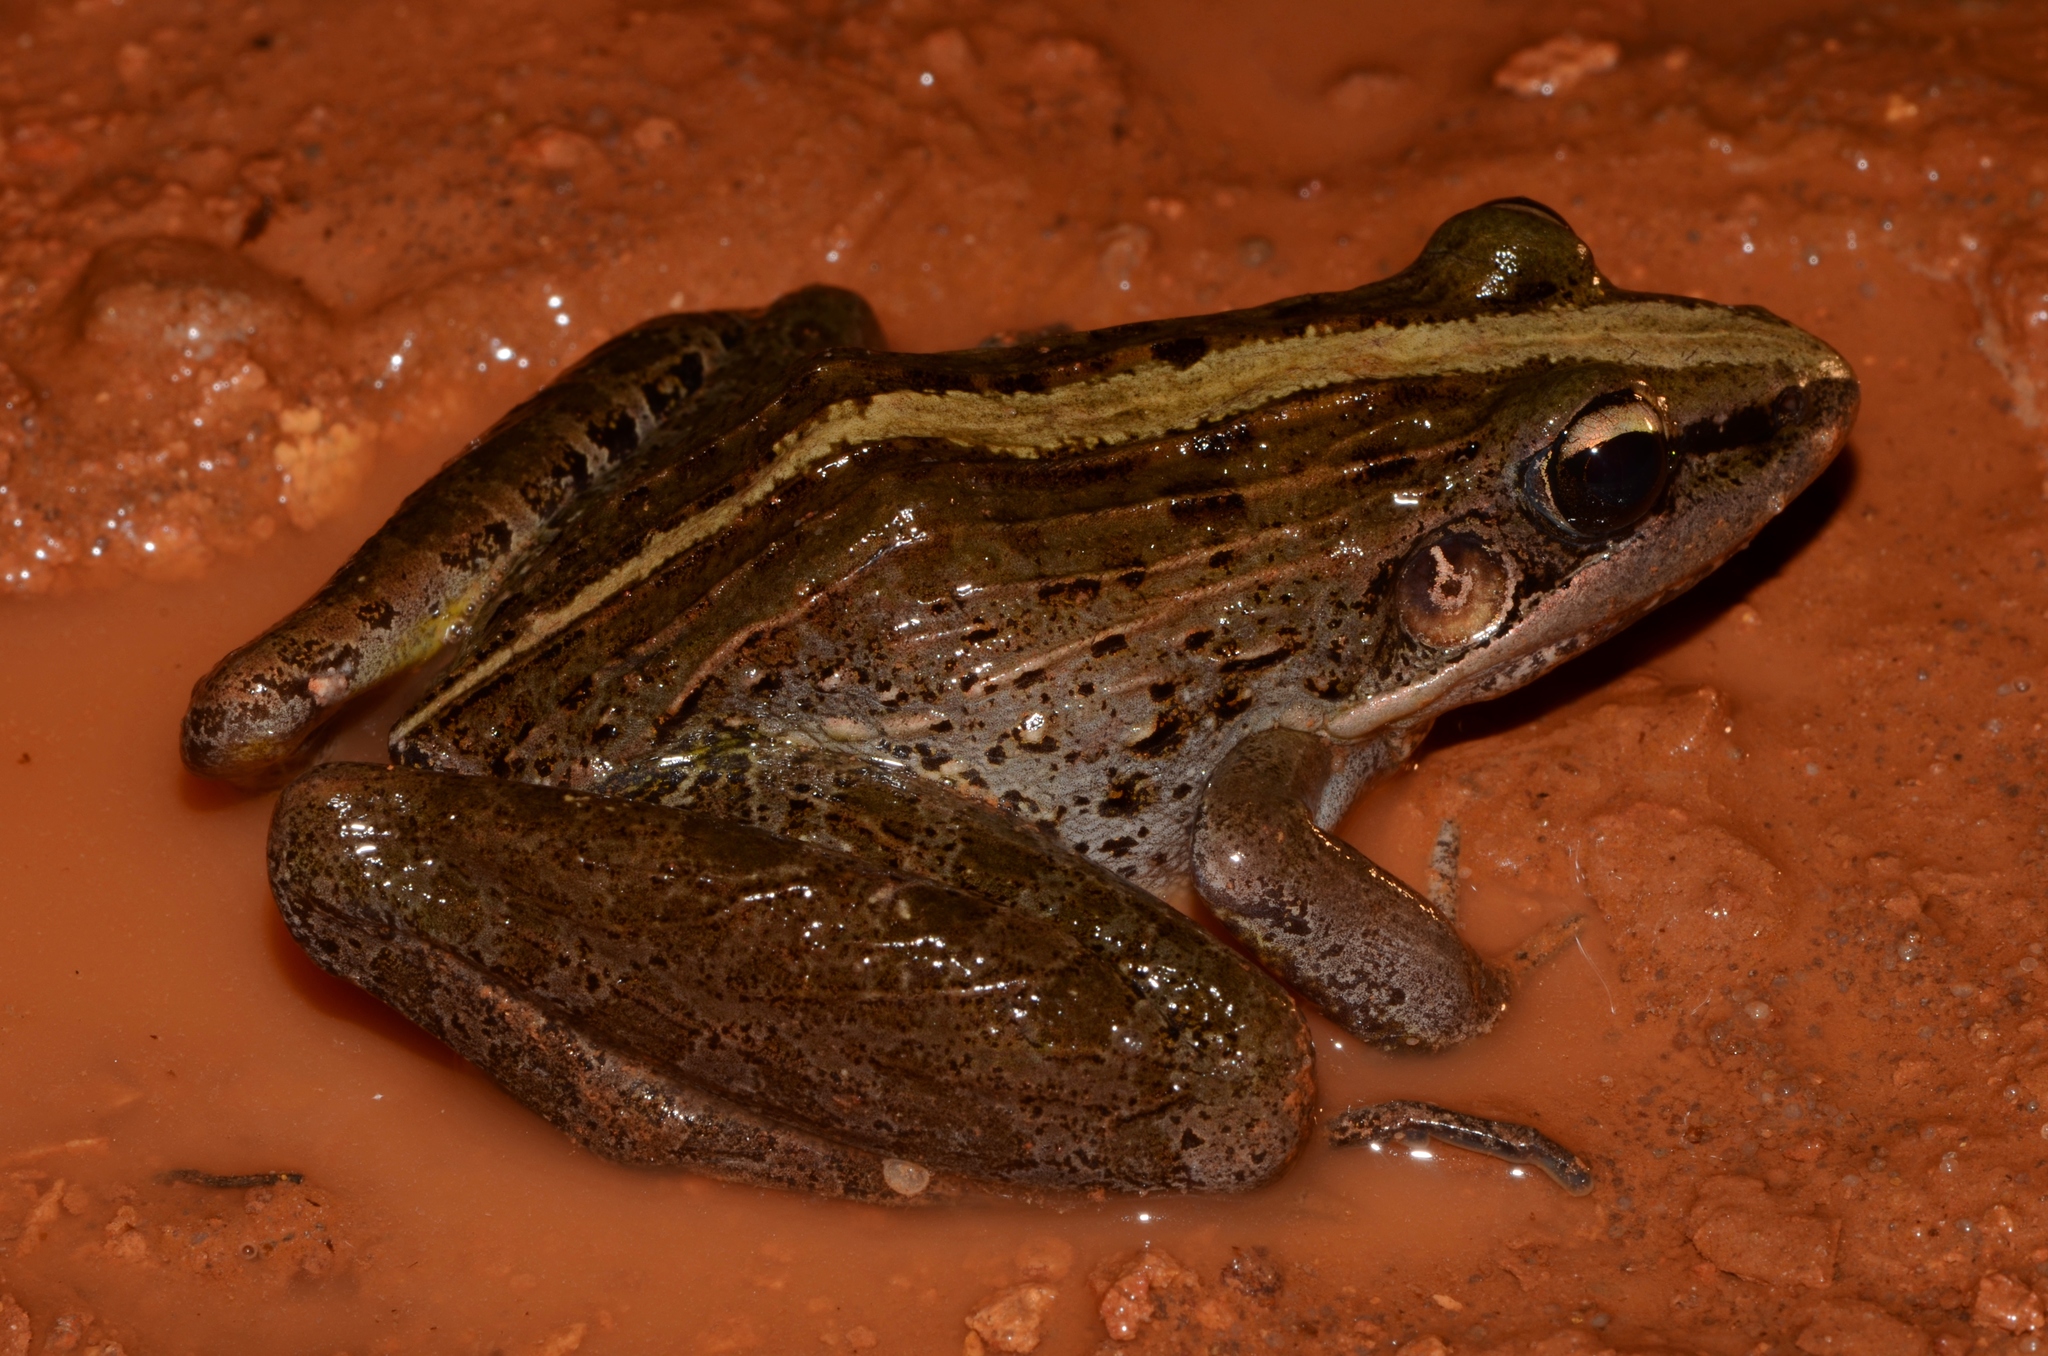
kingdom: Animalia
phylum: Chordata
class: Amphibia
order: Anura
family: Ptychadenidae
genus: Ptychadena
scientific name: Ptychadena perreti
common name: Perret's grassland frog
